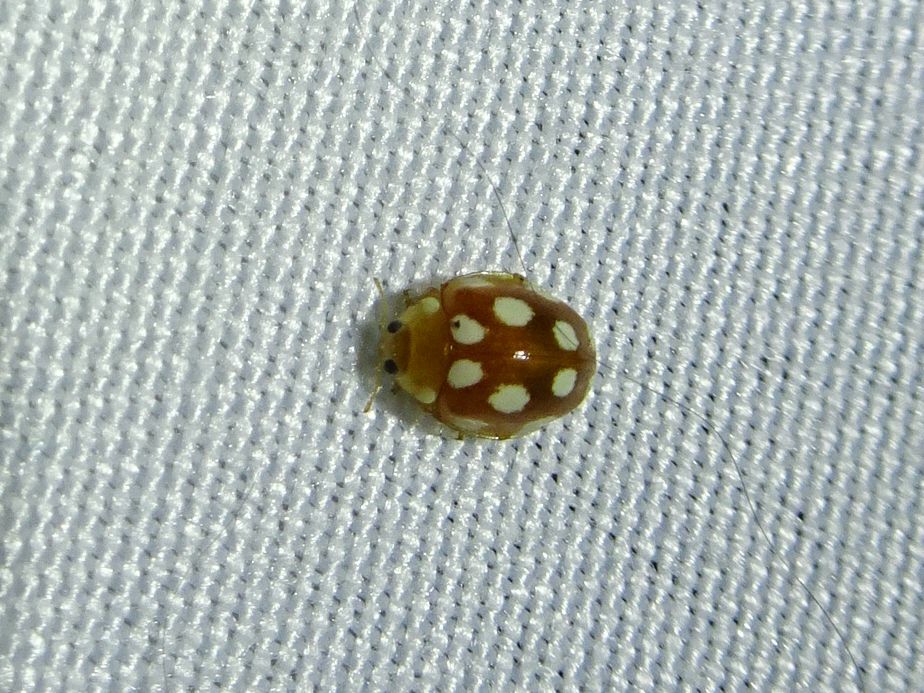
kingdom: Animalia
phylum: Arthropoda
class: Insecta
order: Coleoptera
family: Coccinellidae
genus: Vibidia
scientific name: Vibidia duodecimguttata
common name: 12-spot ladybird
